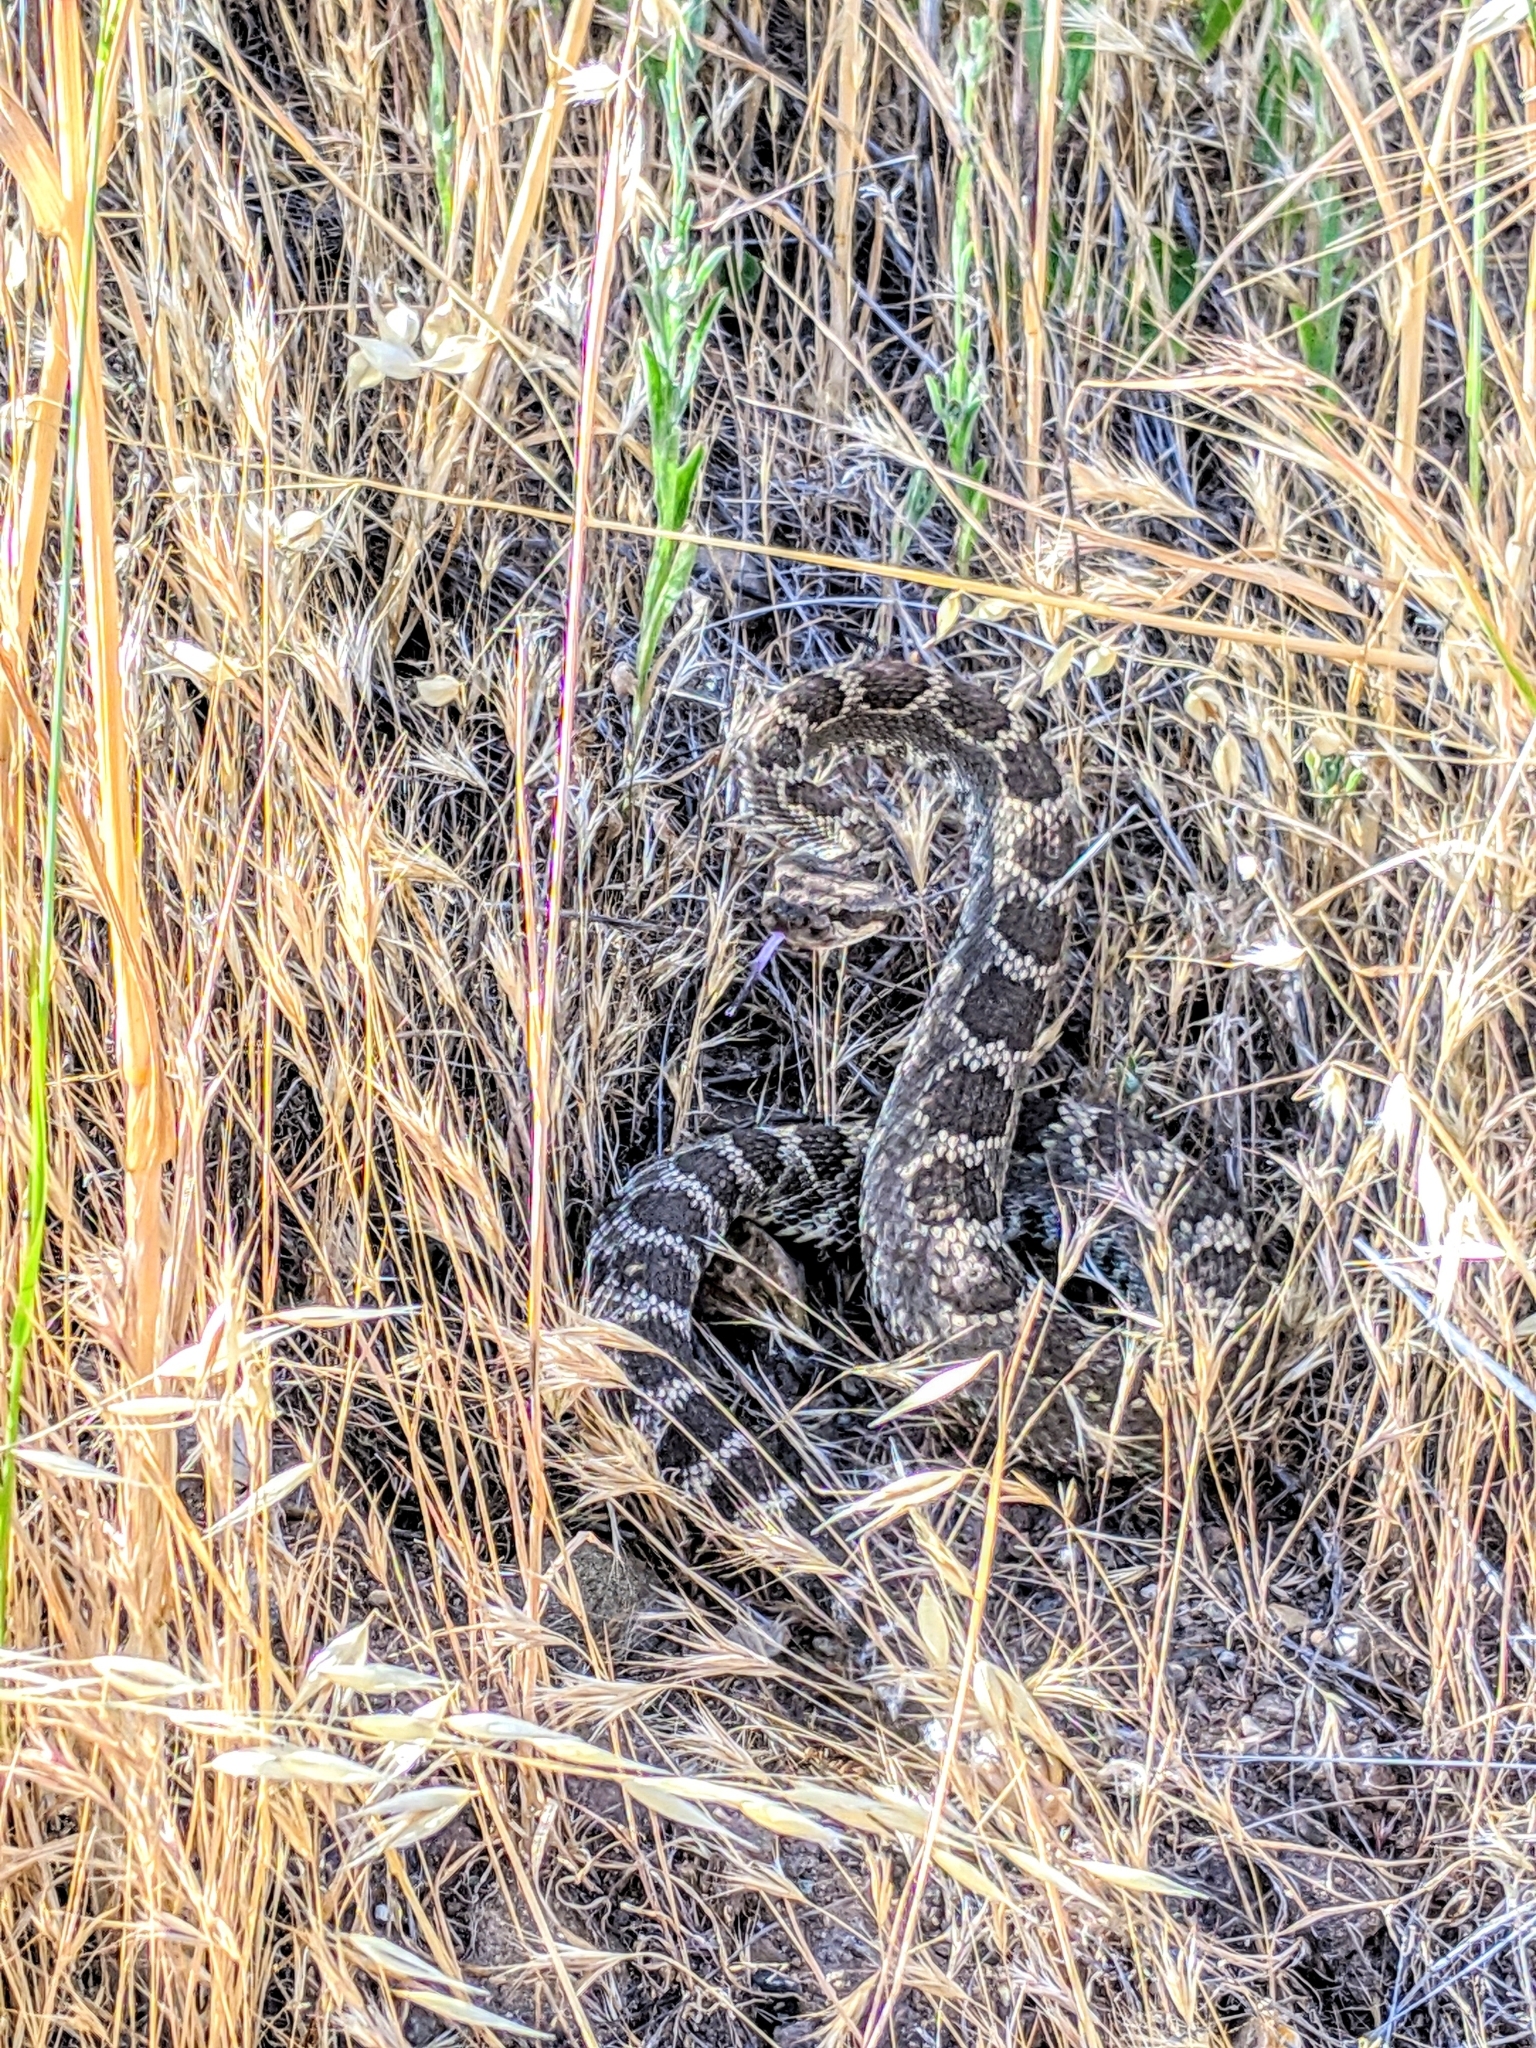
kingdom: Animalia
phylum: Chordata
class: Squamata
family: Viperidae
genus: Crotalus
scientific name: Crotalus oreganus
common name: Abyssus
